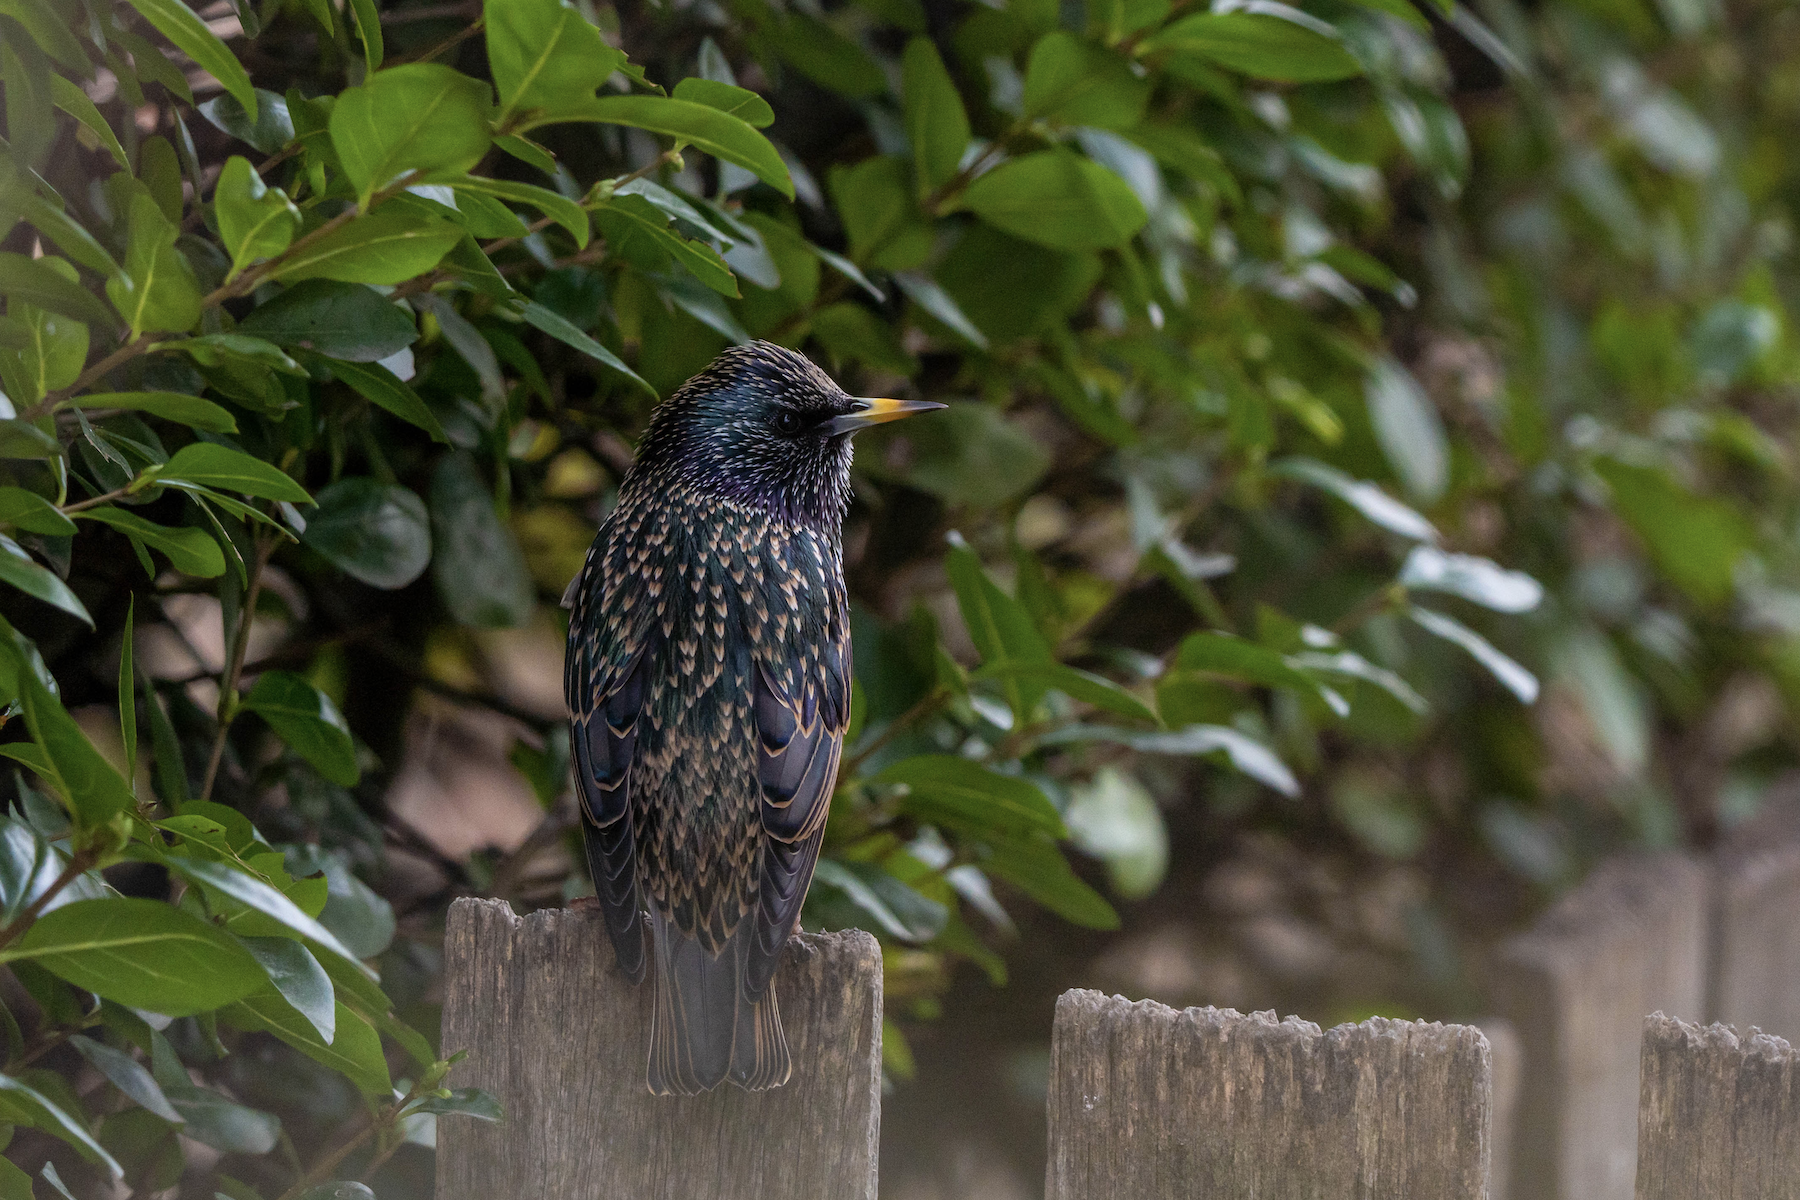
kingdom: Animalia
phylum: Chordata
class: Aves
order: Passeriformes
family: Sturnidae
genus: Sturnus
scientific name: Sturnus vulgaris
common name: Common starling
